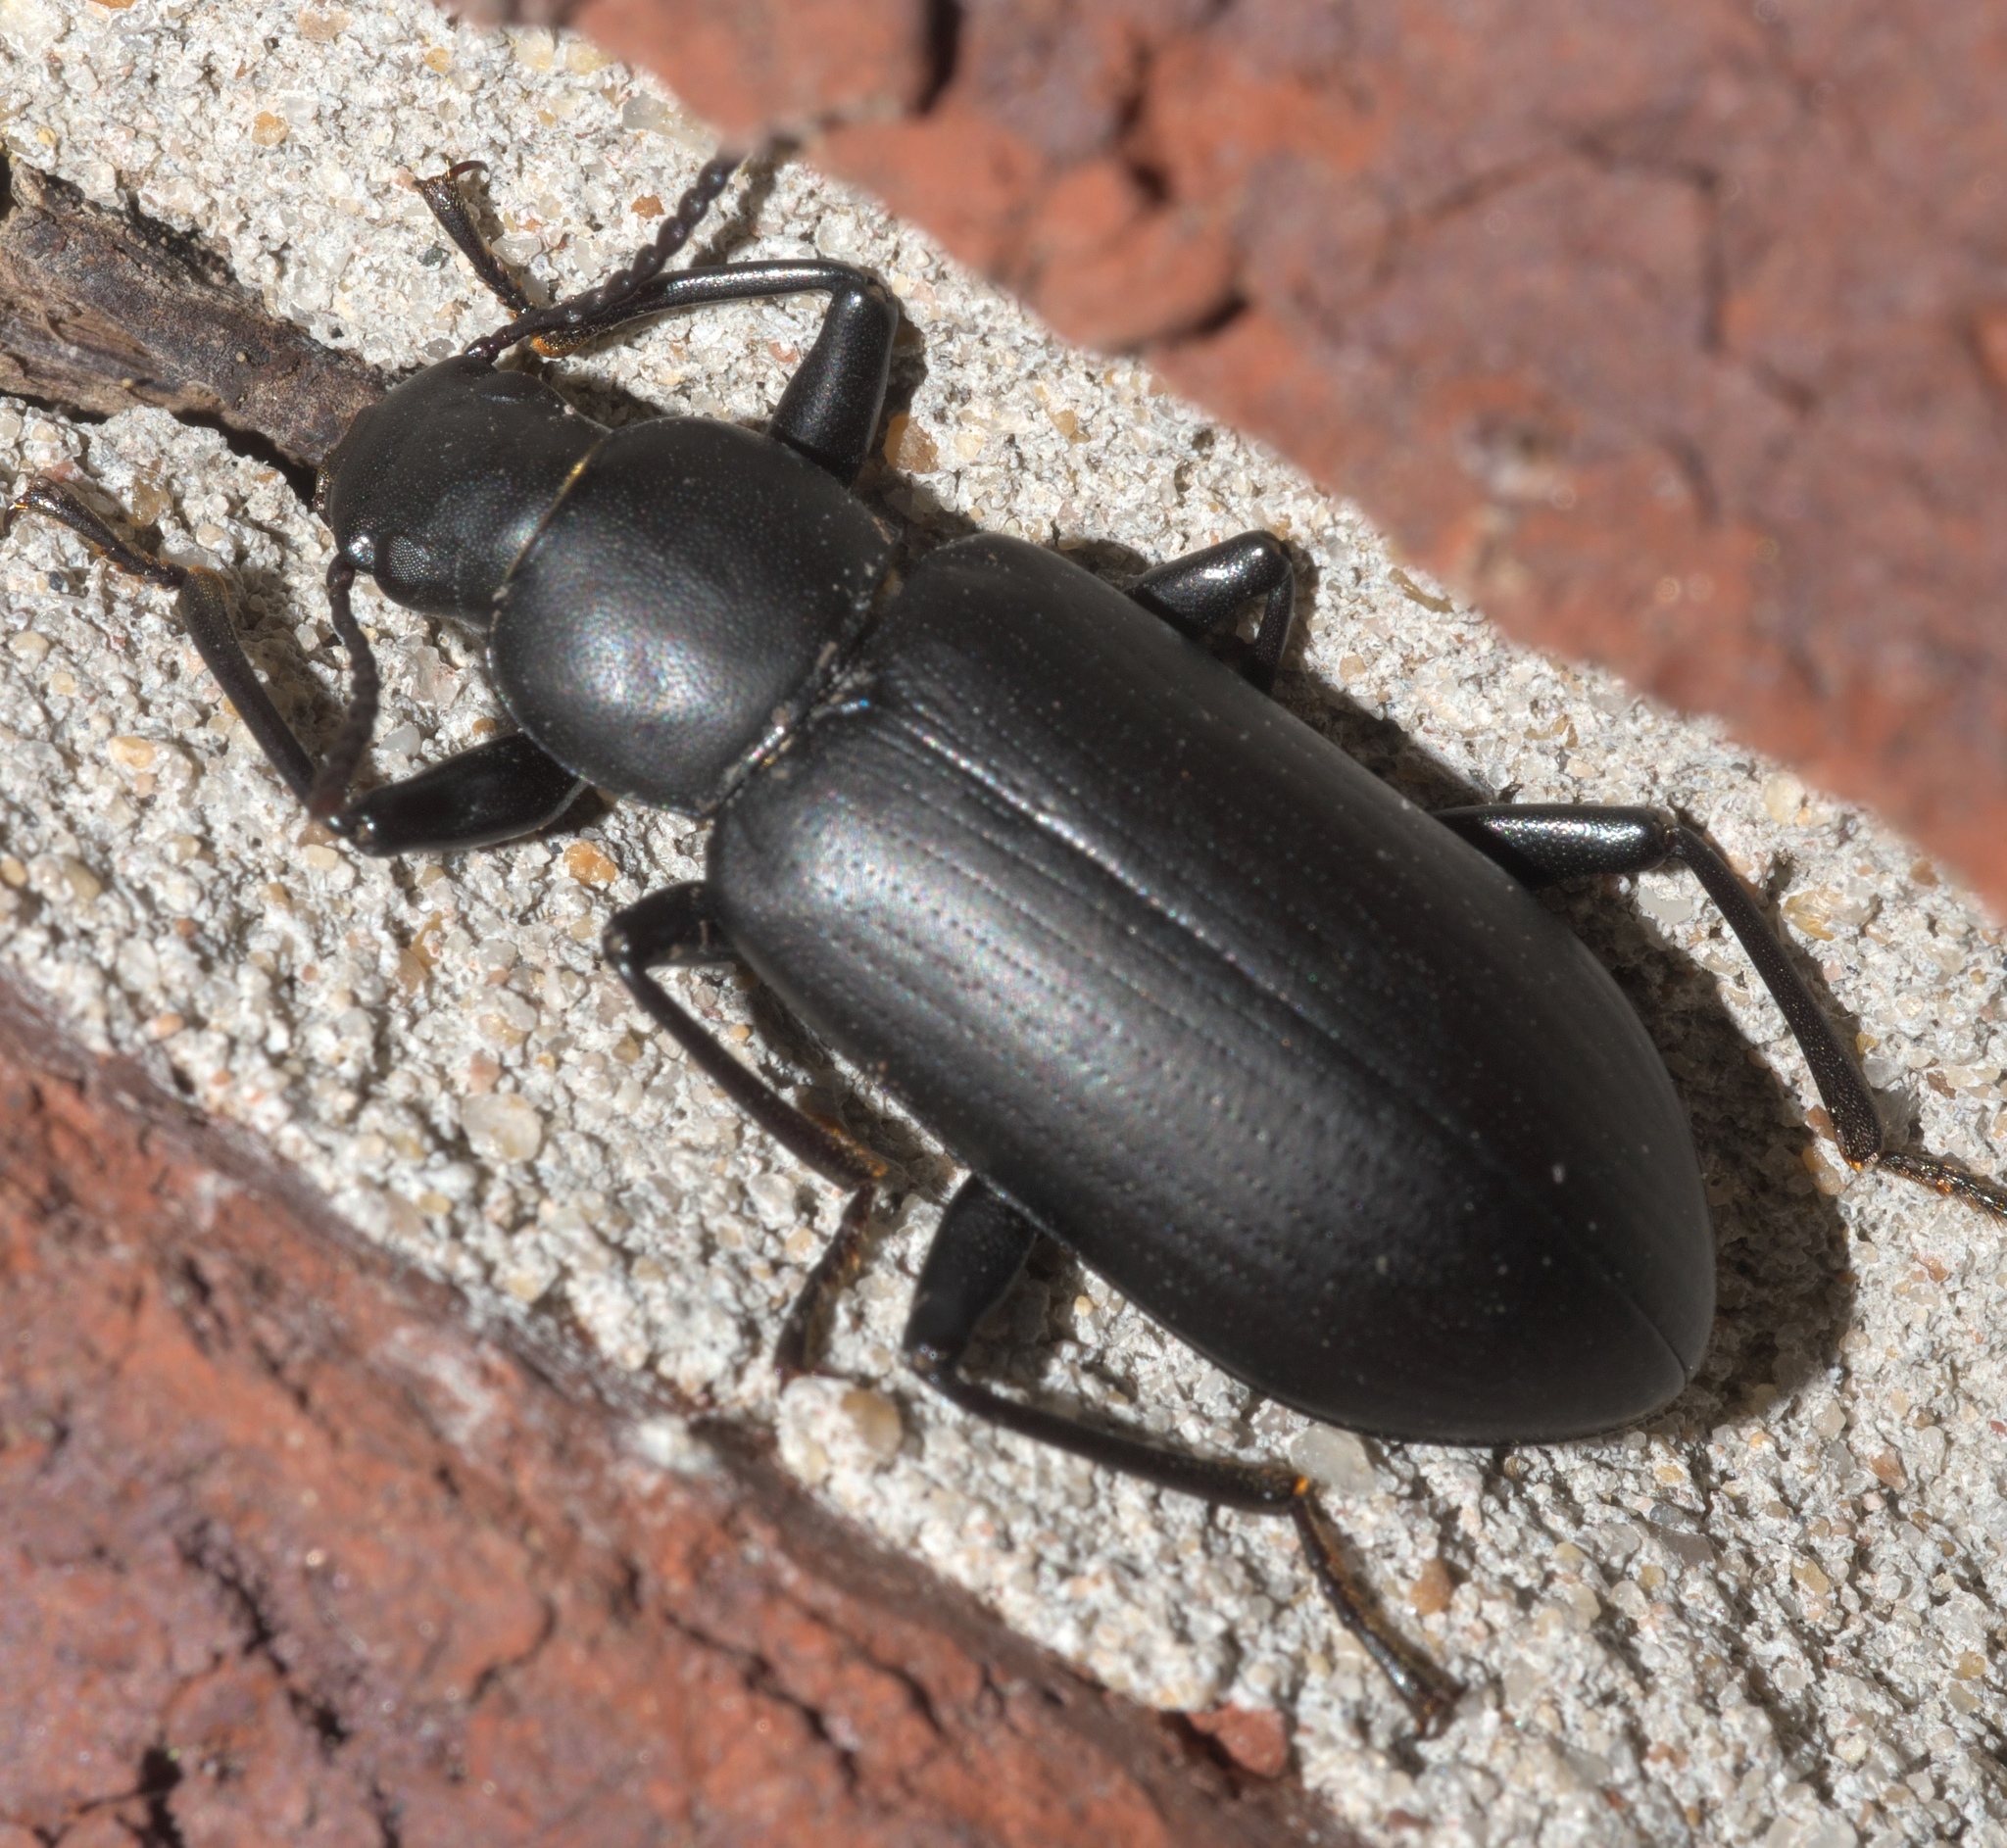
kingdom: Animalia
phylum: Arthropoda
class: Insecta
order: Coleoptera
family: Tenebrionidae
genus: Alobates
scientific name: Alobates pensylvanicus
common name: False mealworm beetle
